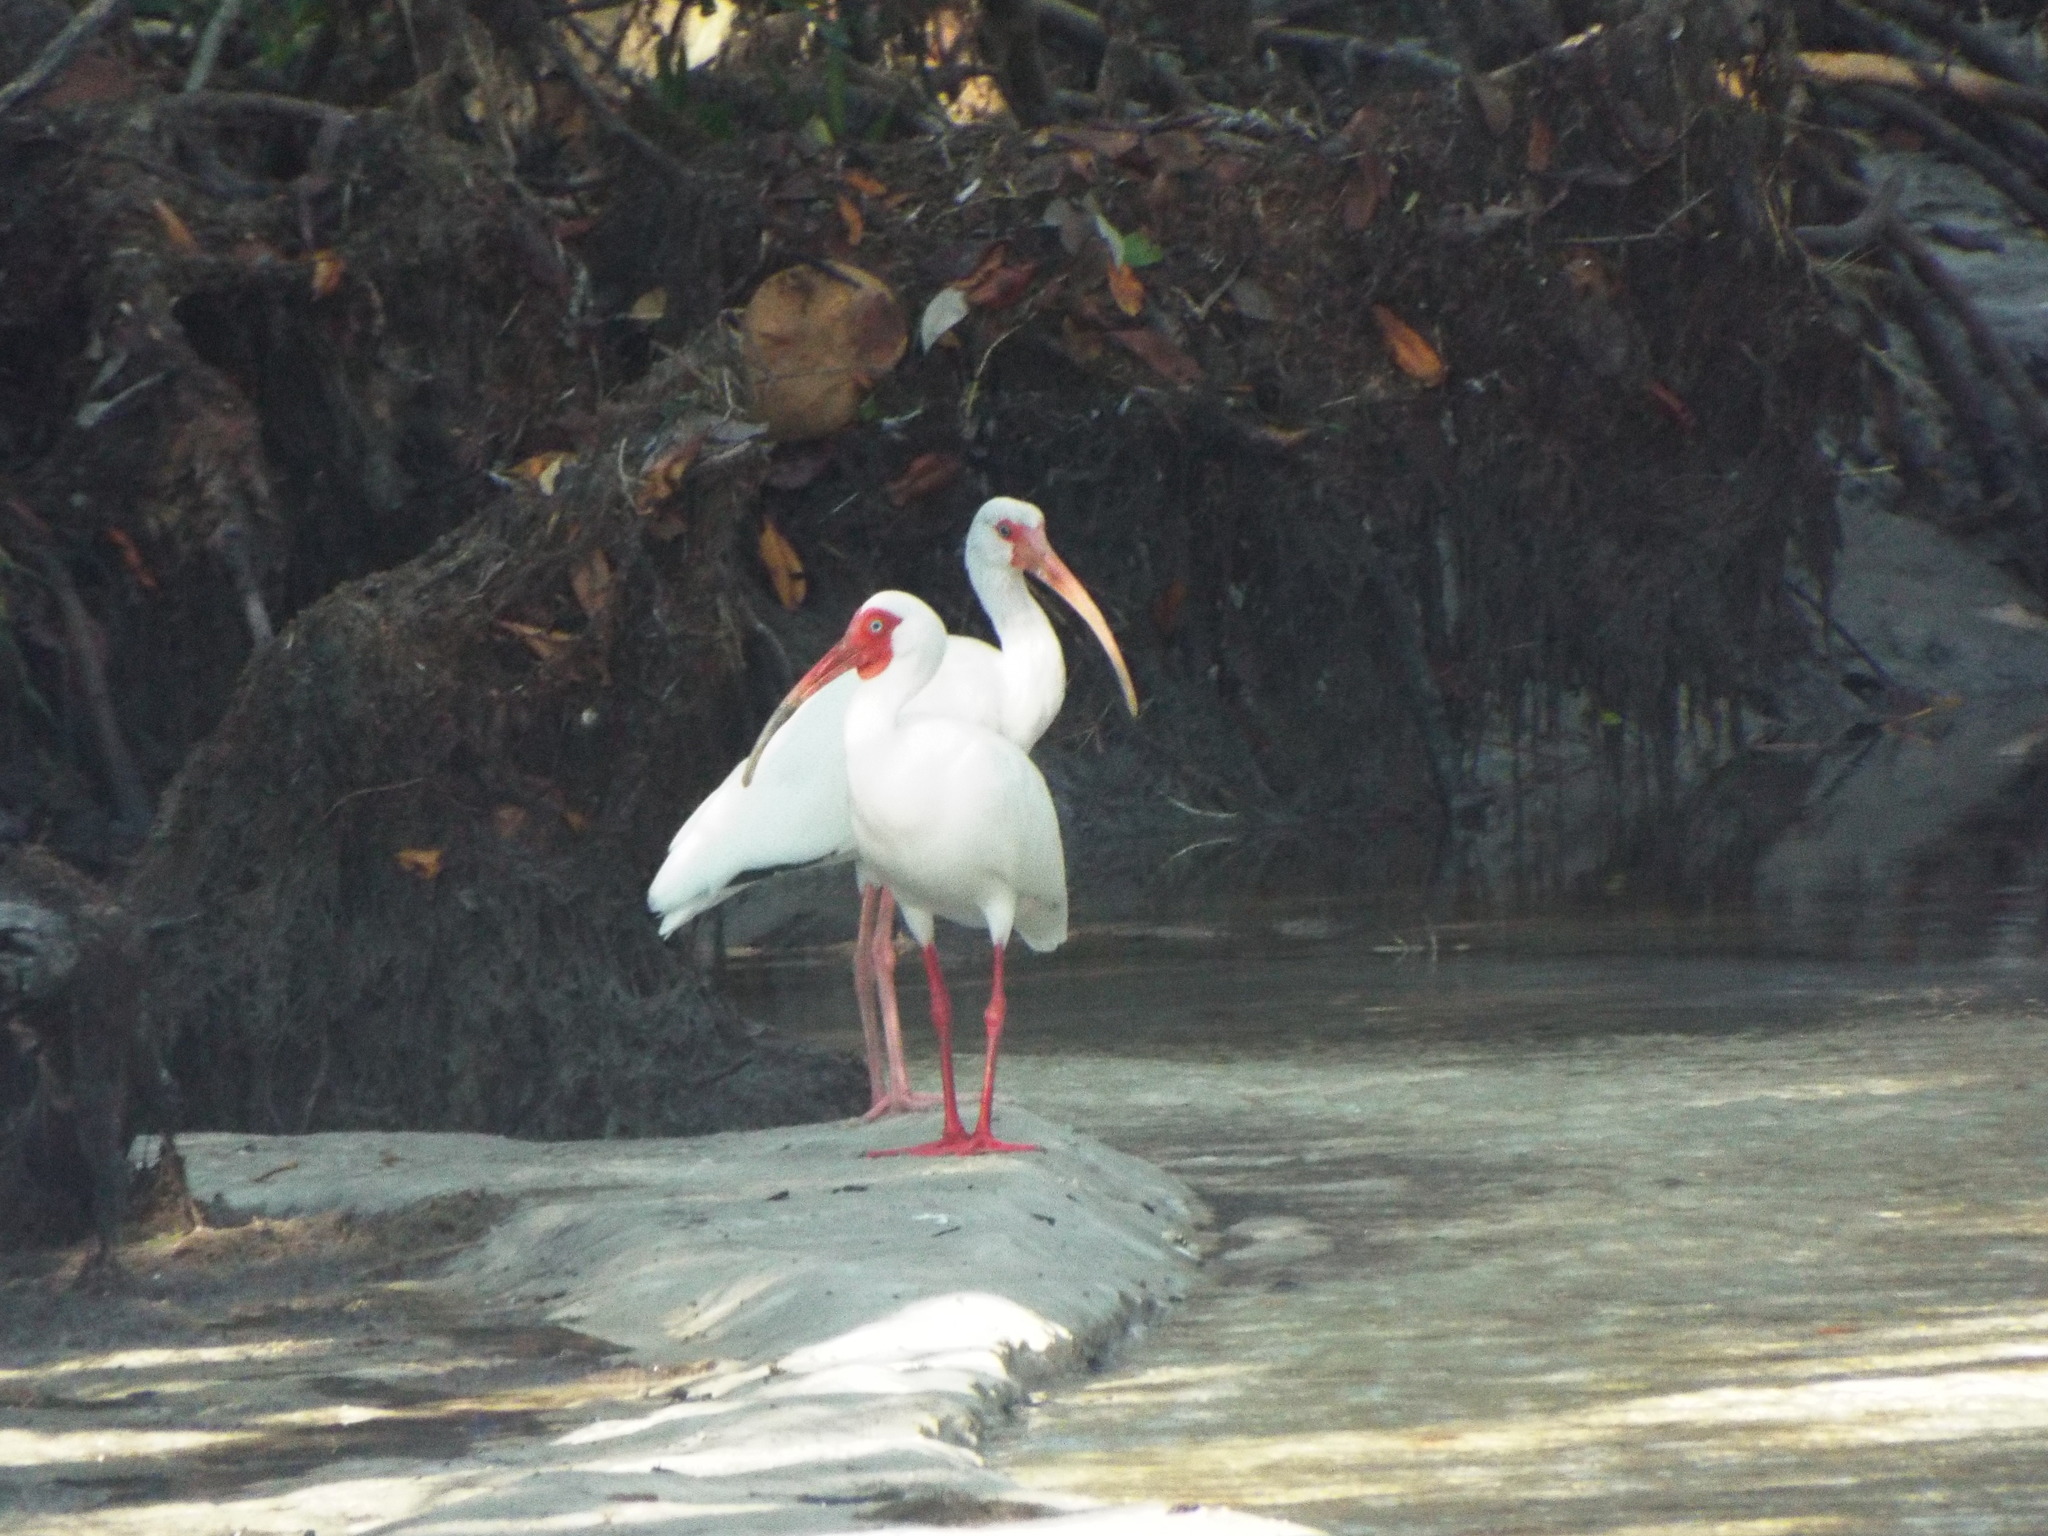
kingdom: Animalia
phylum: Chordata
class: Aves
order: Pelecaniformes
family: Threskiornithidae
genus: Eudocimus
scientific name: Eudocimus albus
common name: White ibis
